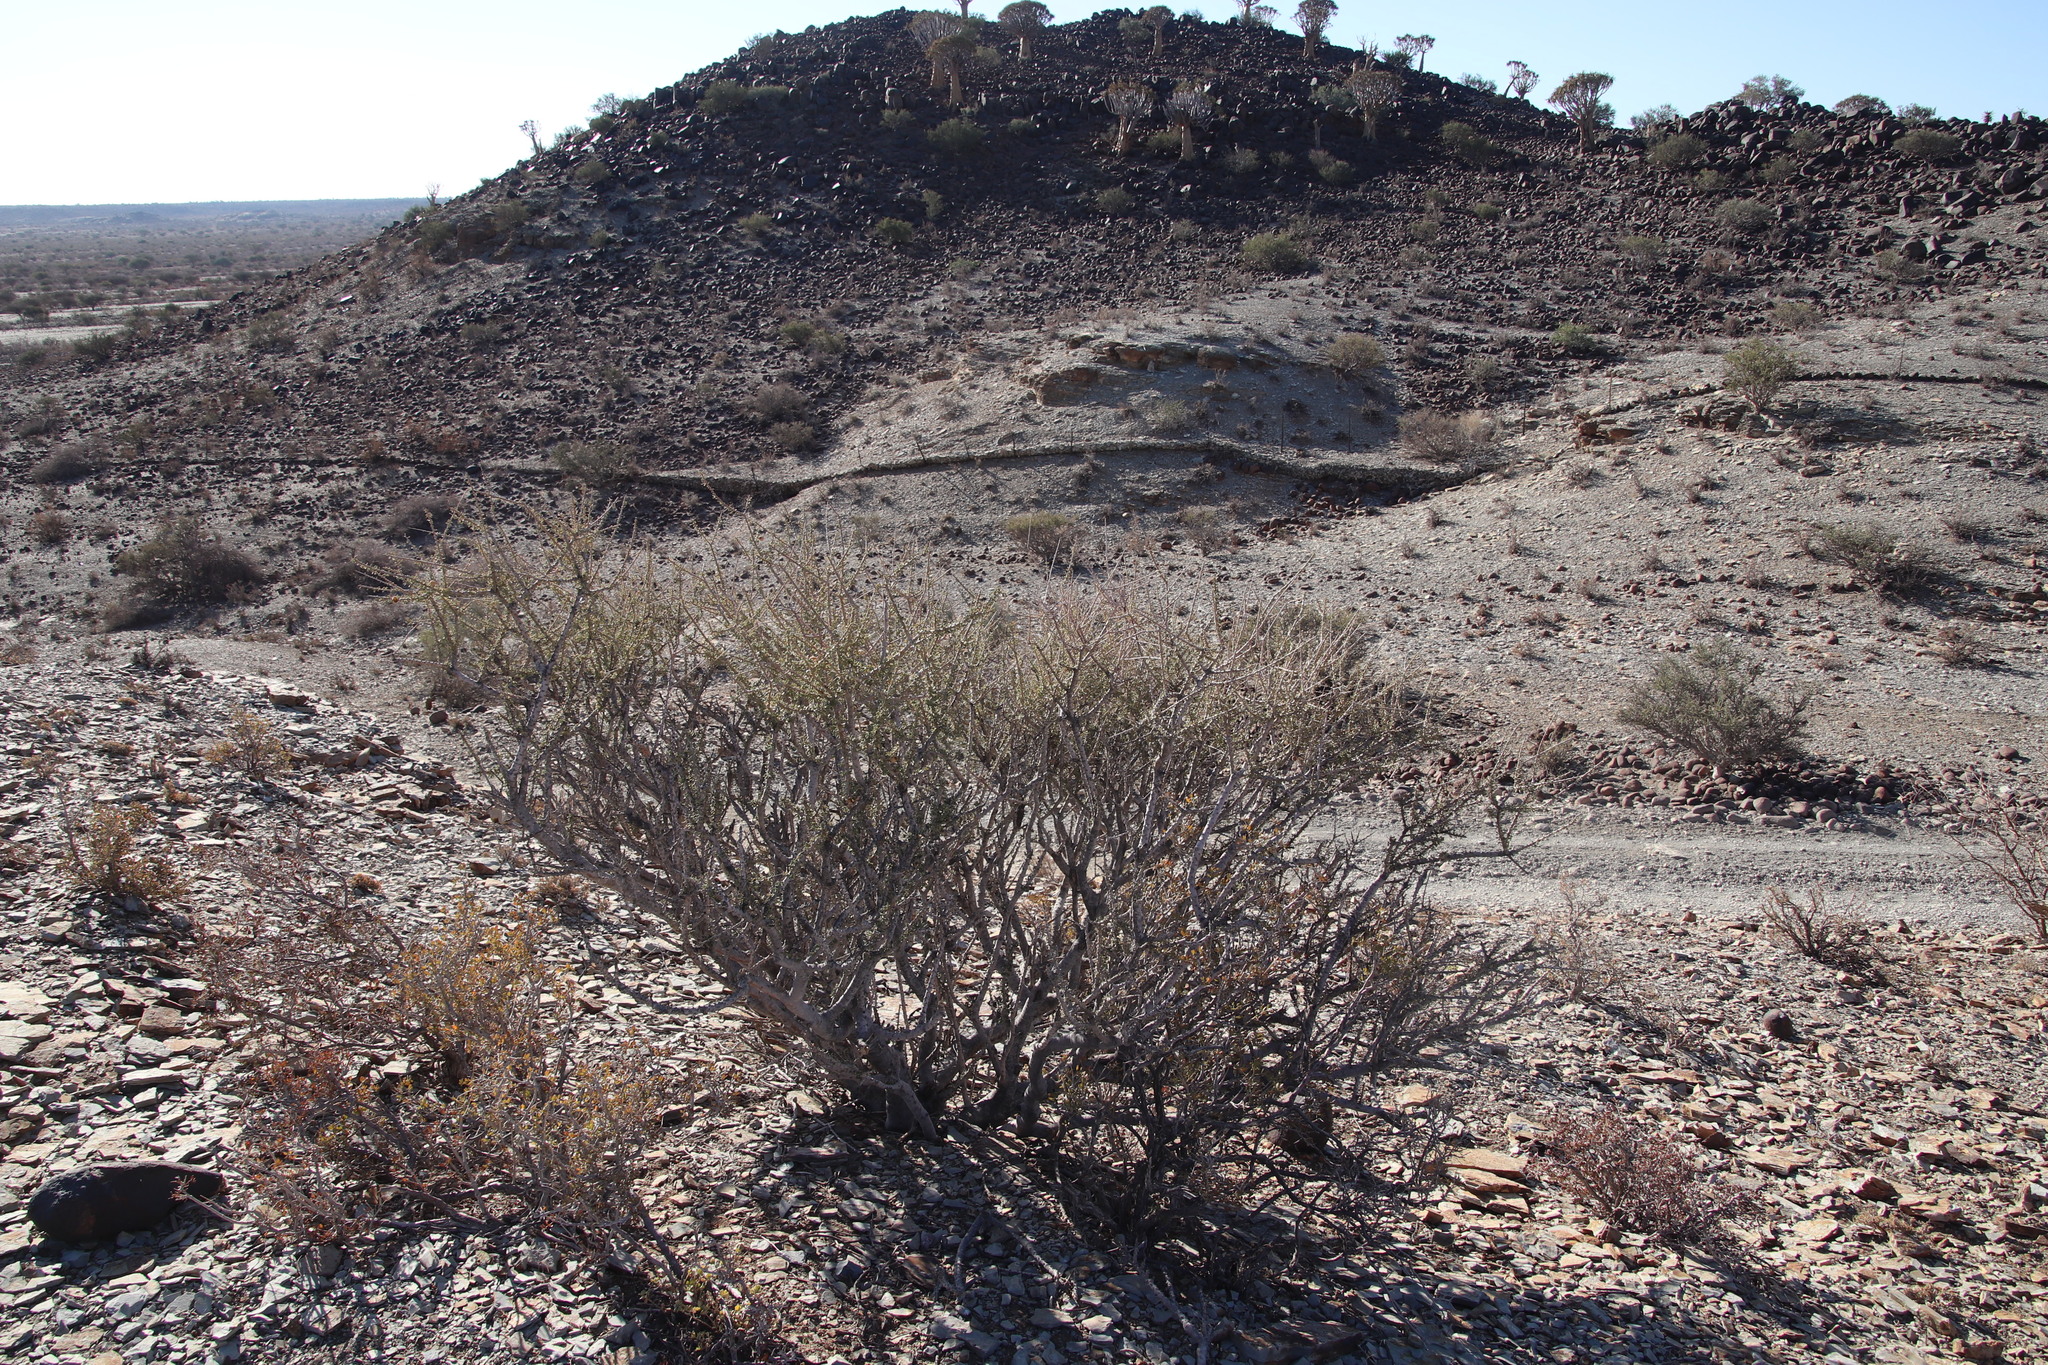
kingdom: Plantae
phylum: Tracheophyta
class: Magnoliopsida
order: Brassicales
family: Capparaceae
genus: Boscia
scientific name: Boscia foetida
